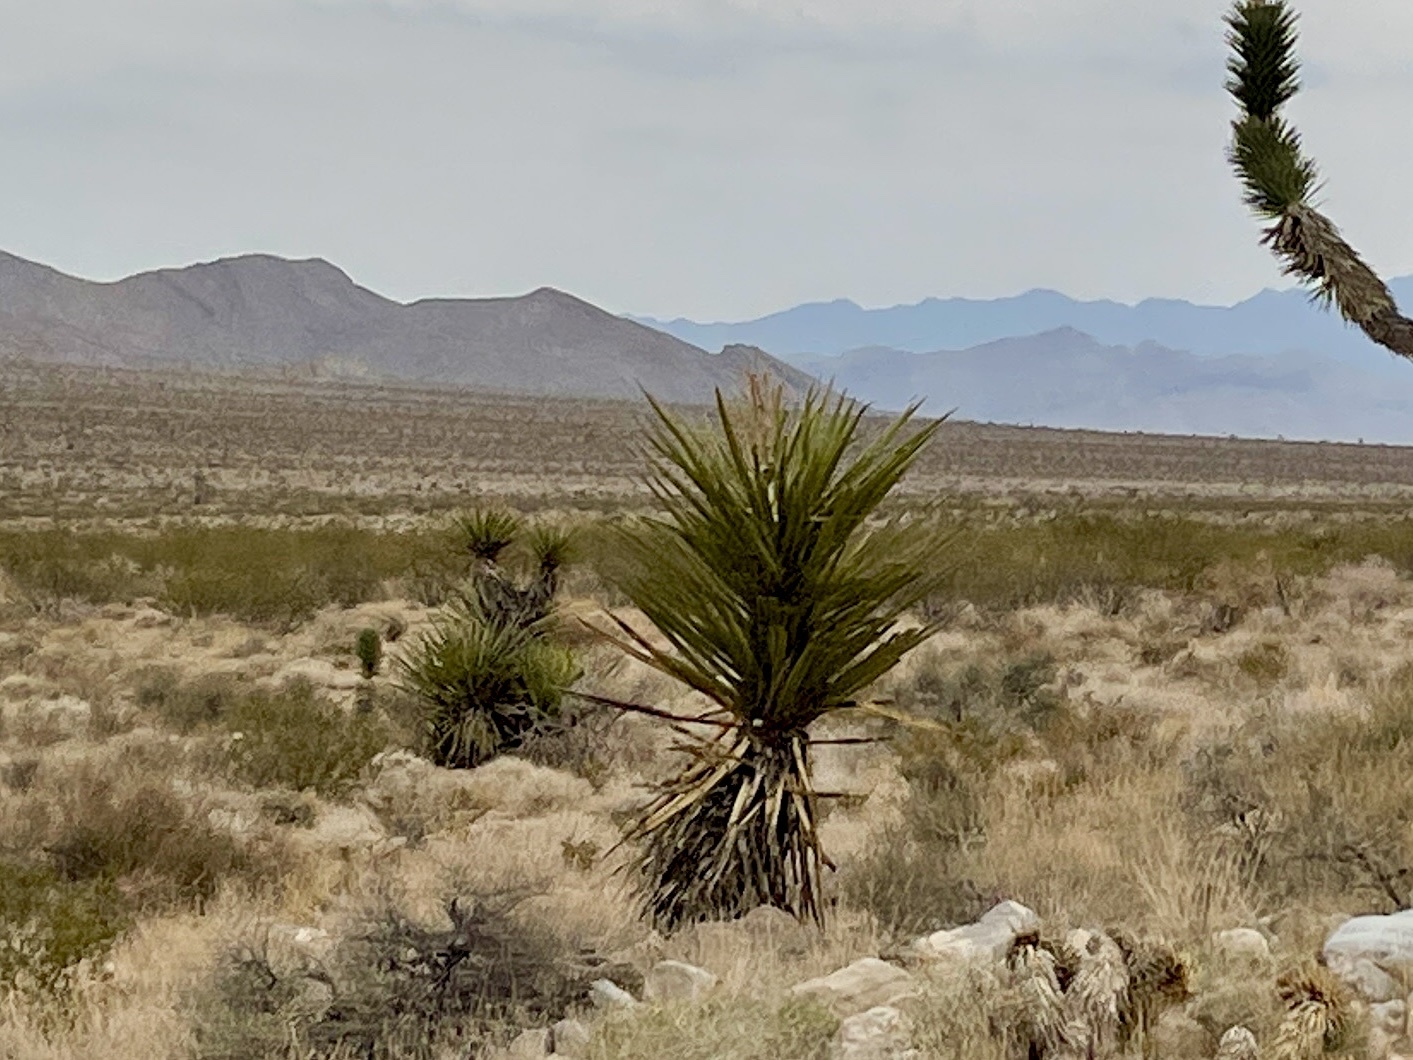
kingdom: Plantae
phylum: Tracheophyta
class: Liliopsida
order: Asparagales
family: Asparagaceae
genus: Yucca
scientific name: Yucca schidigera
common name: Mojave yucca
